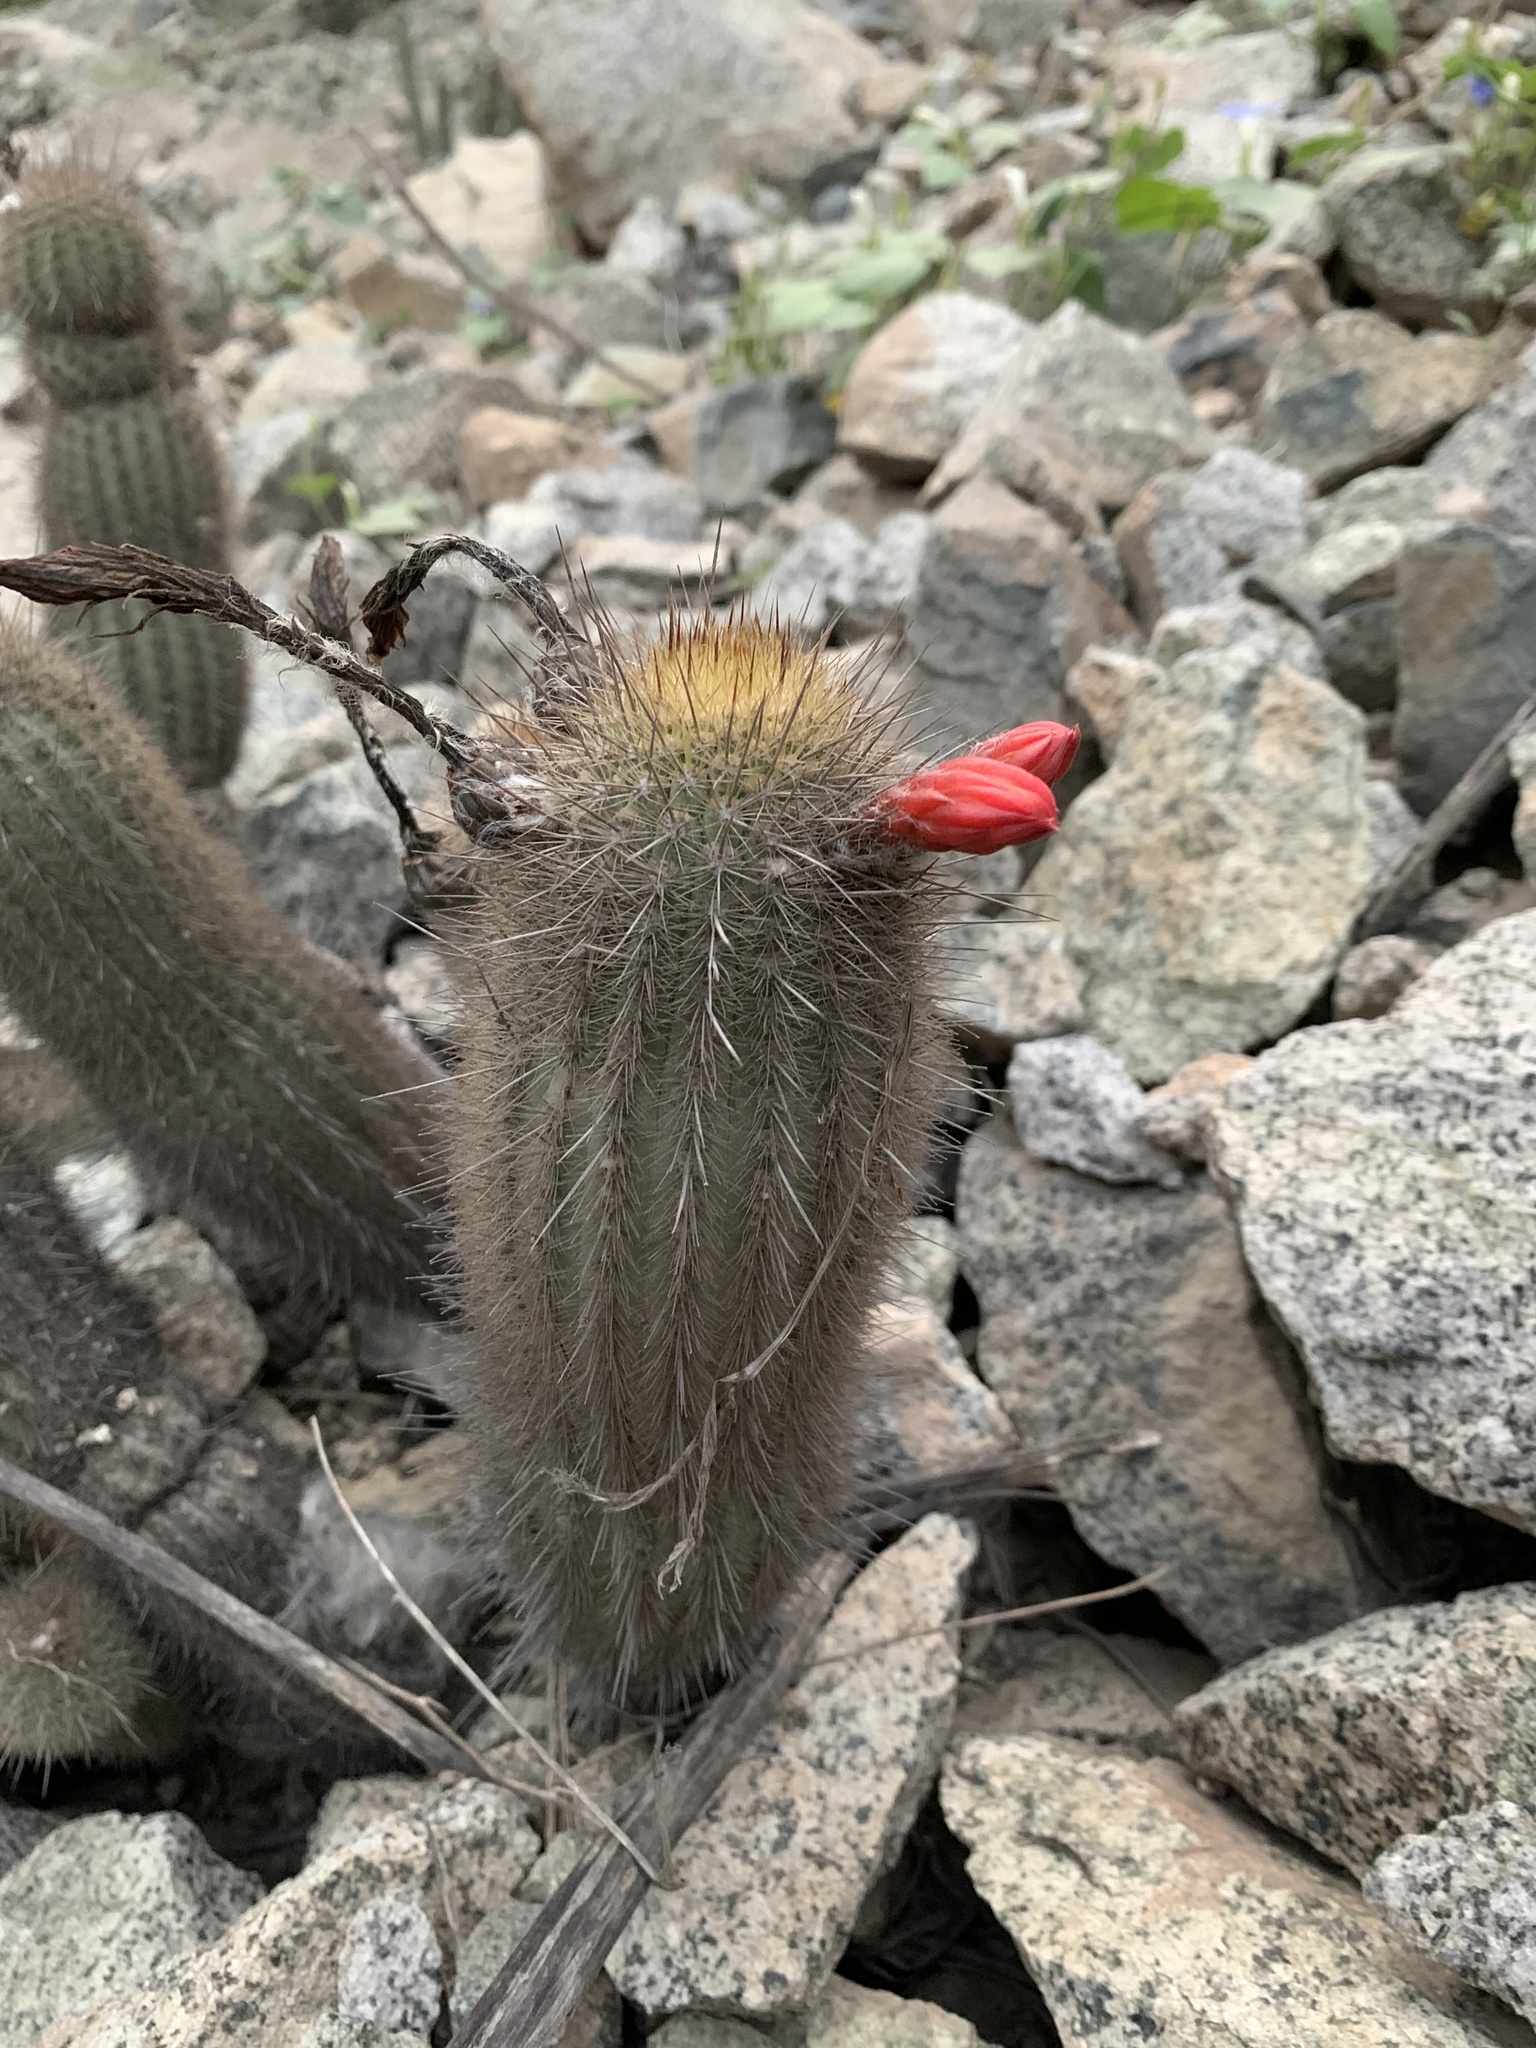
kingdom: Plantae
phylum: Tracheophyta
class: Magnoliopsida
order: Caryophyllales
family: Cactaceae
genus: Borzicactus
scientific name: Borzicactus acanthurus
